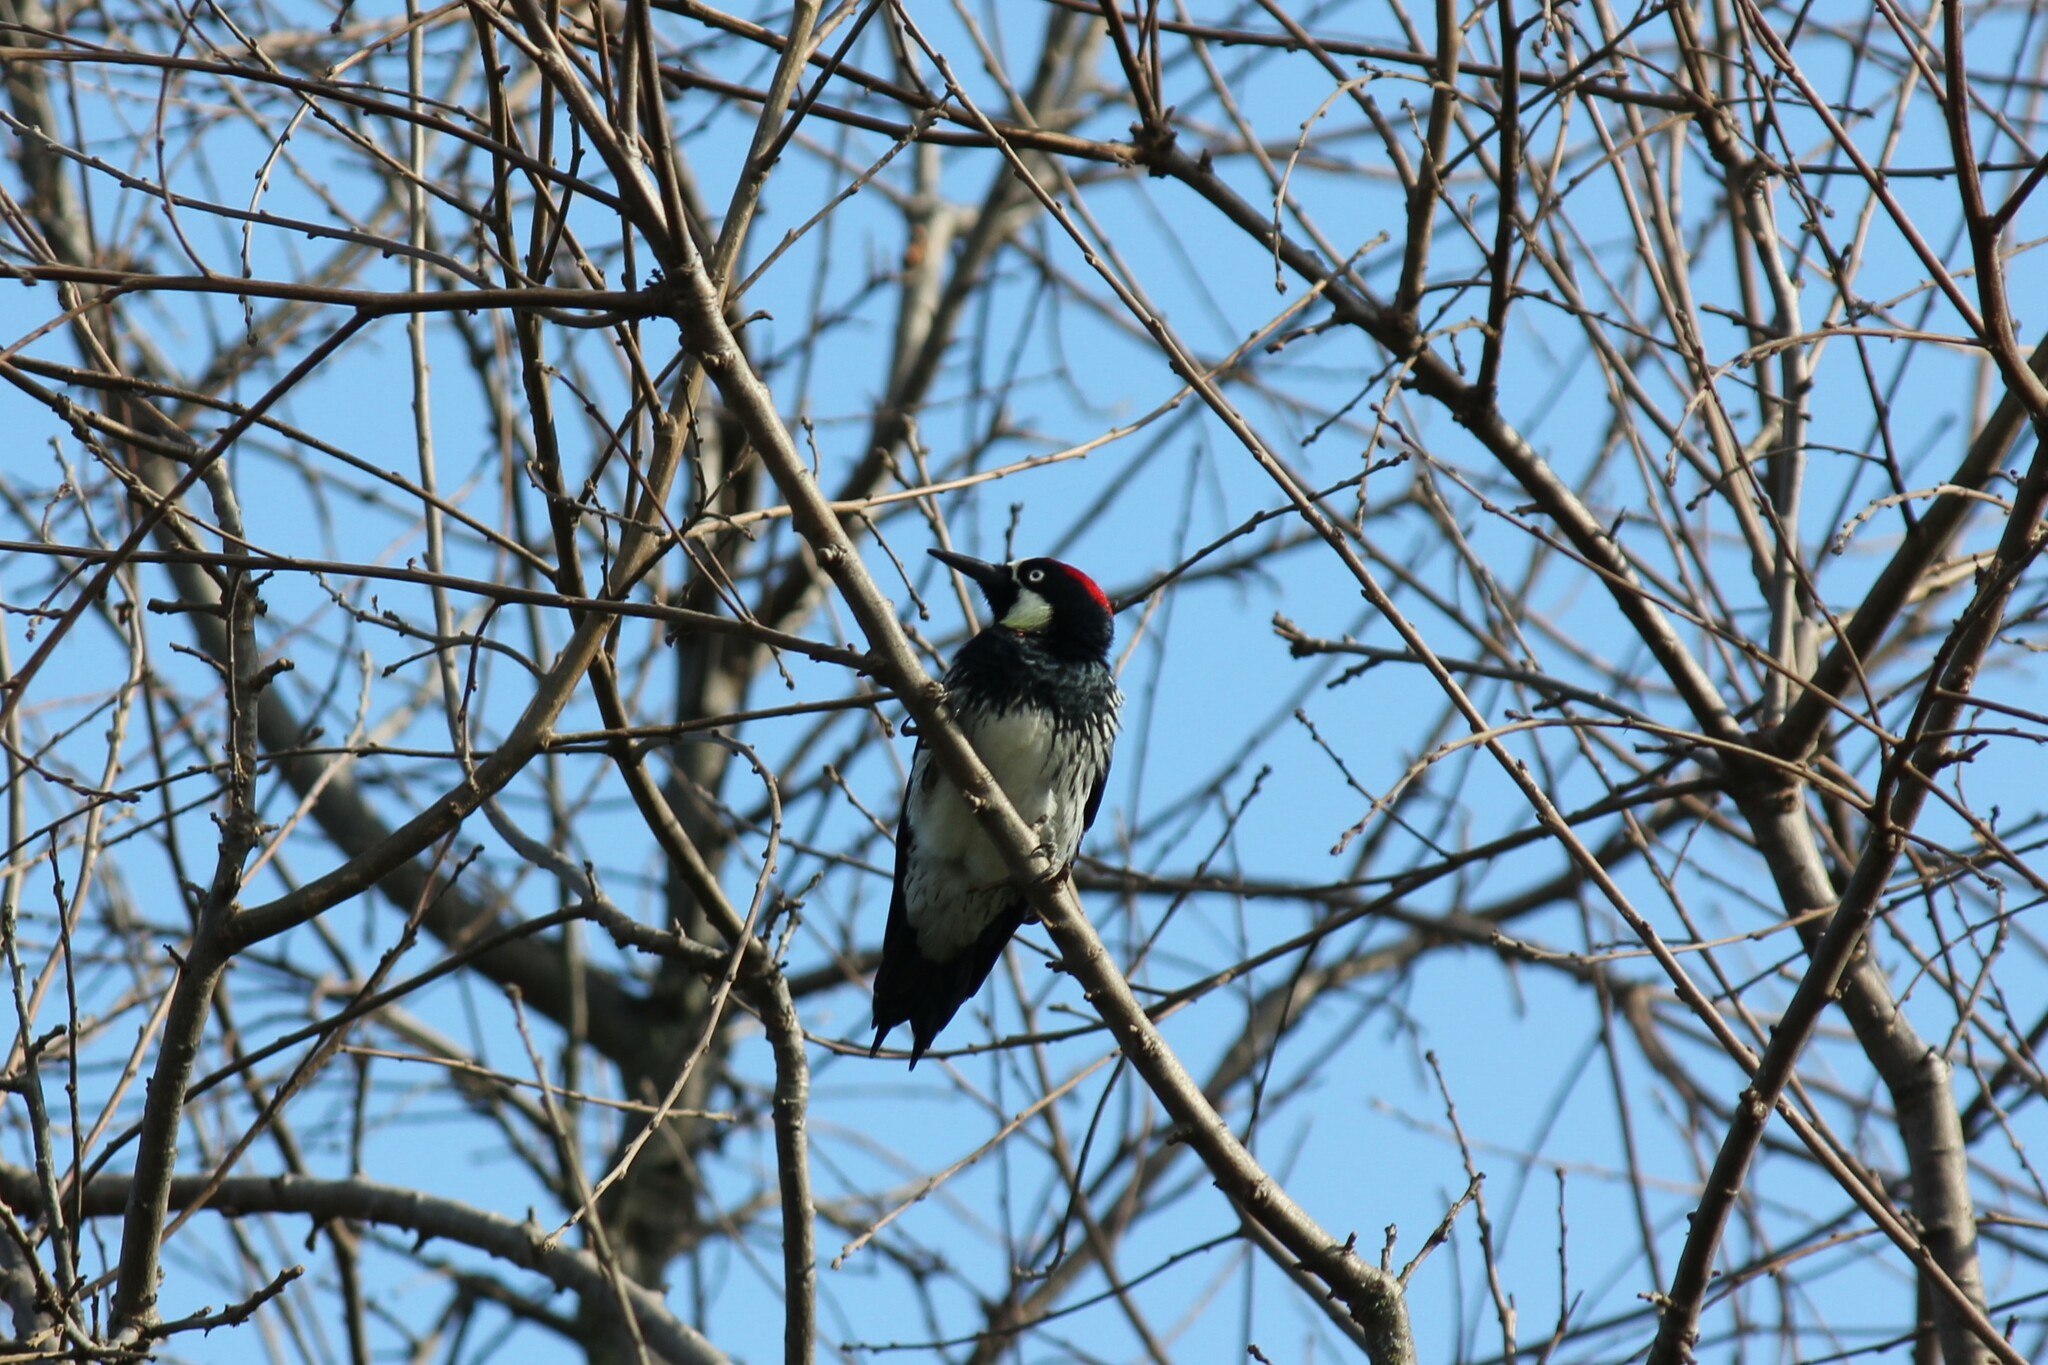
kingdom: Animalia
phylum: Chordata
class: Aves
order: Piciformes
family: Picidae
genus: Melanerpes
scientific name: Melanerpes formicivorus
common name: Acorn woodpecker
